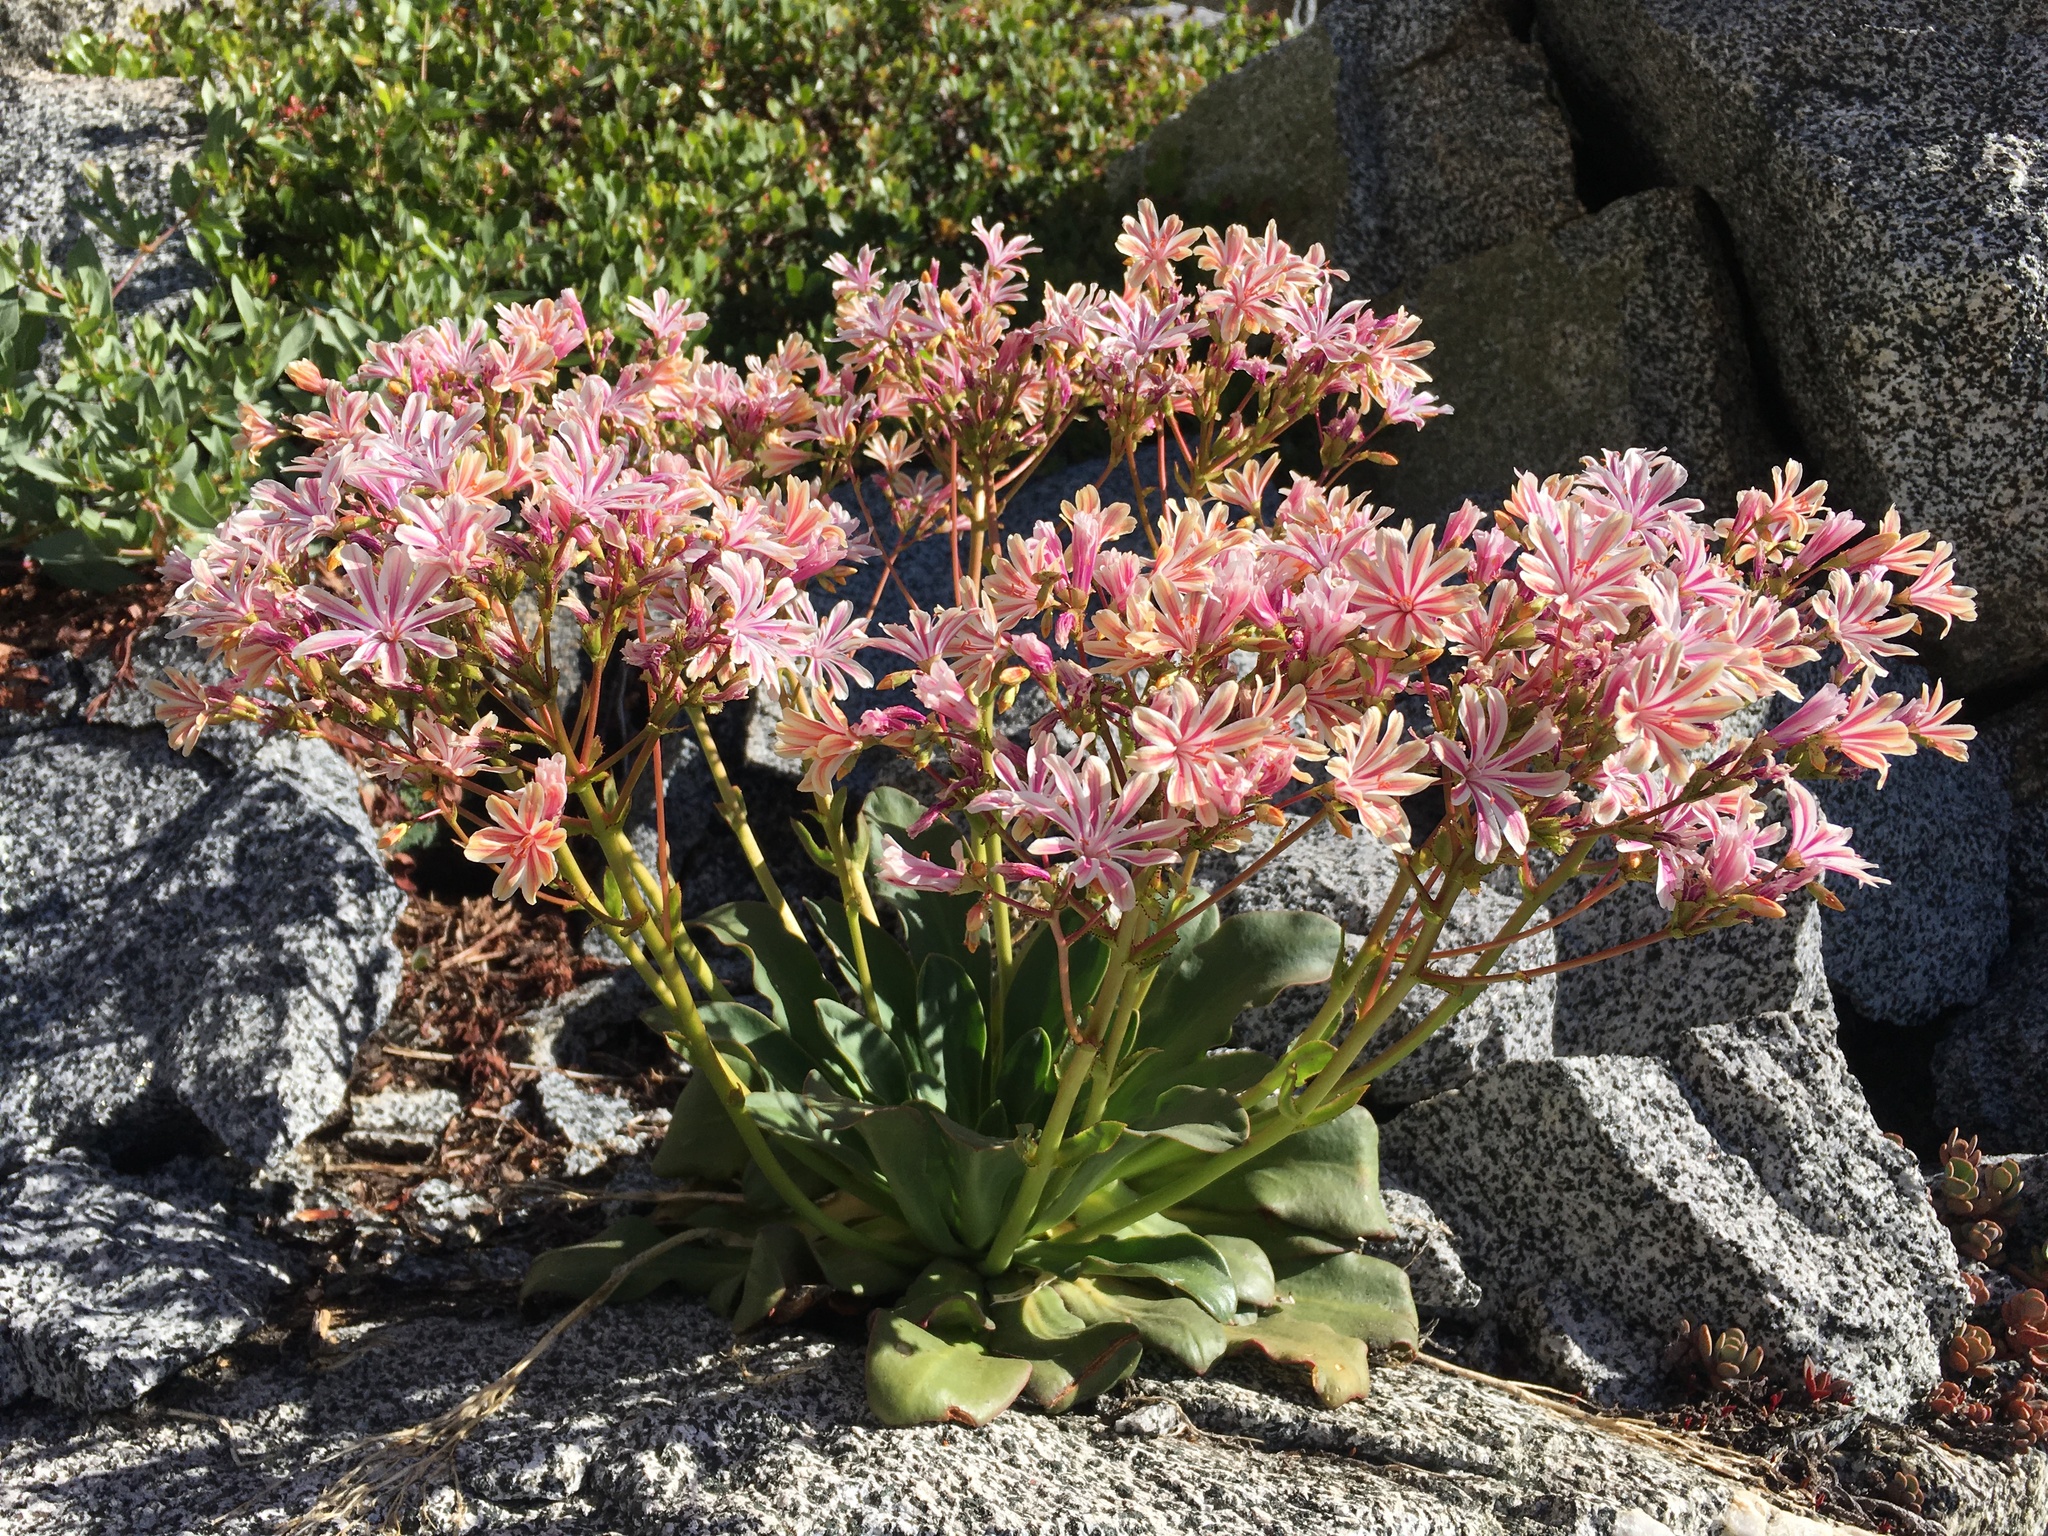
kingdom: Plantae
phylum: Tracheophyta
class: Magnoliopsida
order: Caryophyllales
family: Montiaceae
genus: Lewisia
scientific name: Lewisia cotyledon
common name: Siskiyou lewisia
